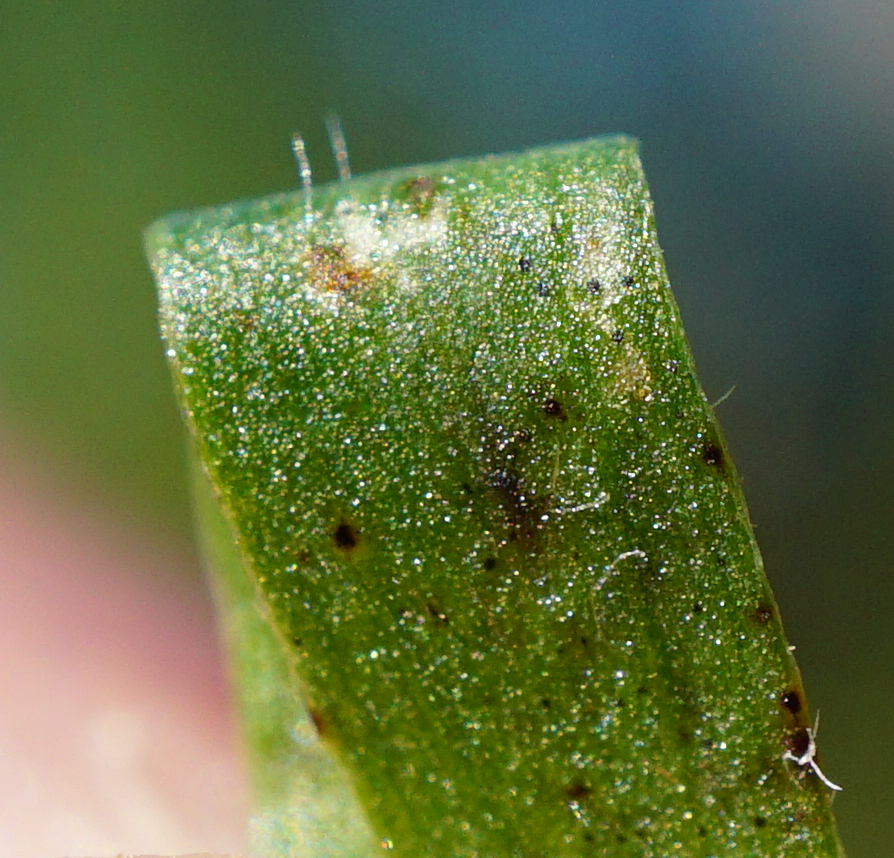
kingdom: Plantae
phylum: Tracheophyta
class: Magnoliopsida
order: Fabales
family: Fabaceae
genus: Vicia
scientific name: Vicia cracca
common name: Bird vetch
